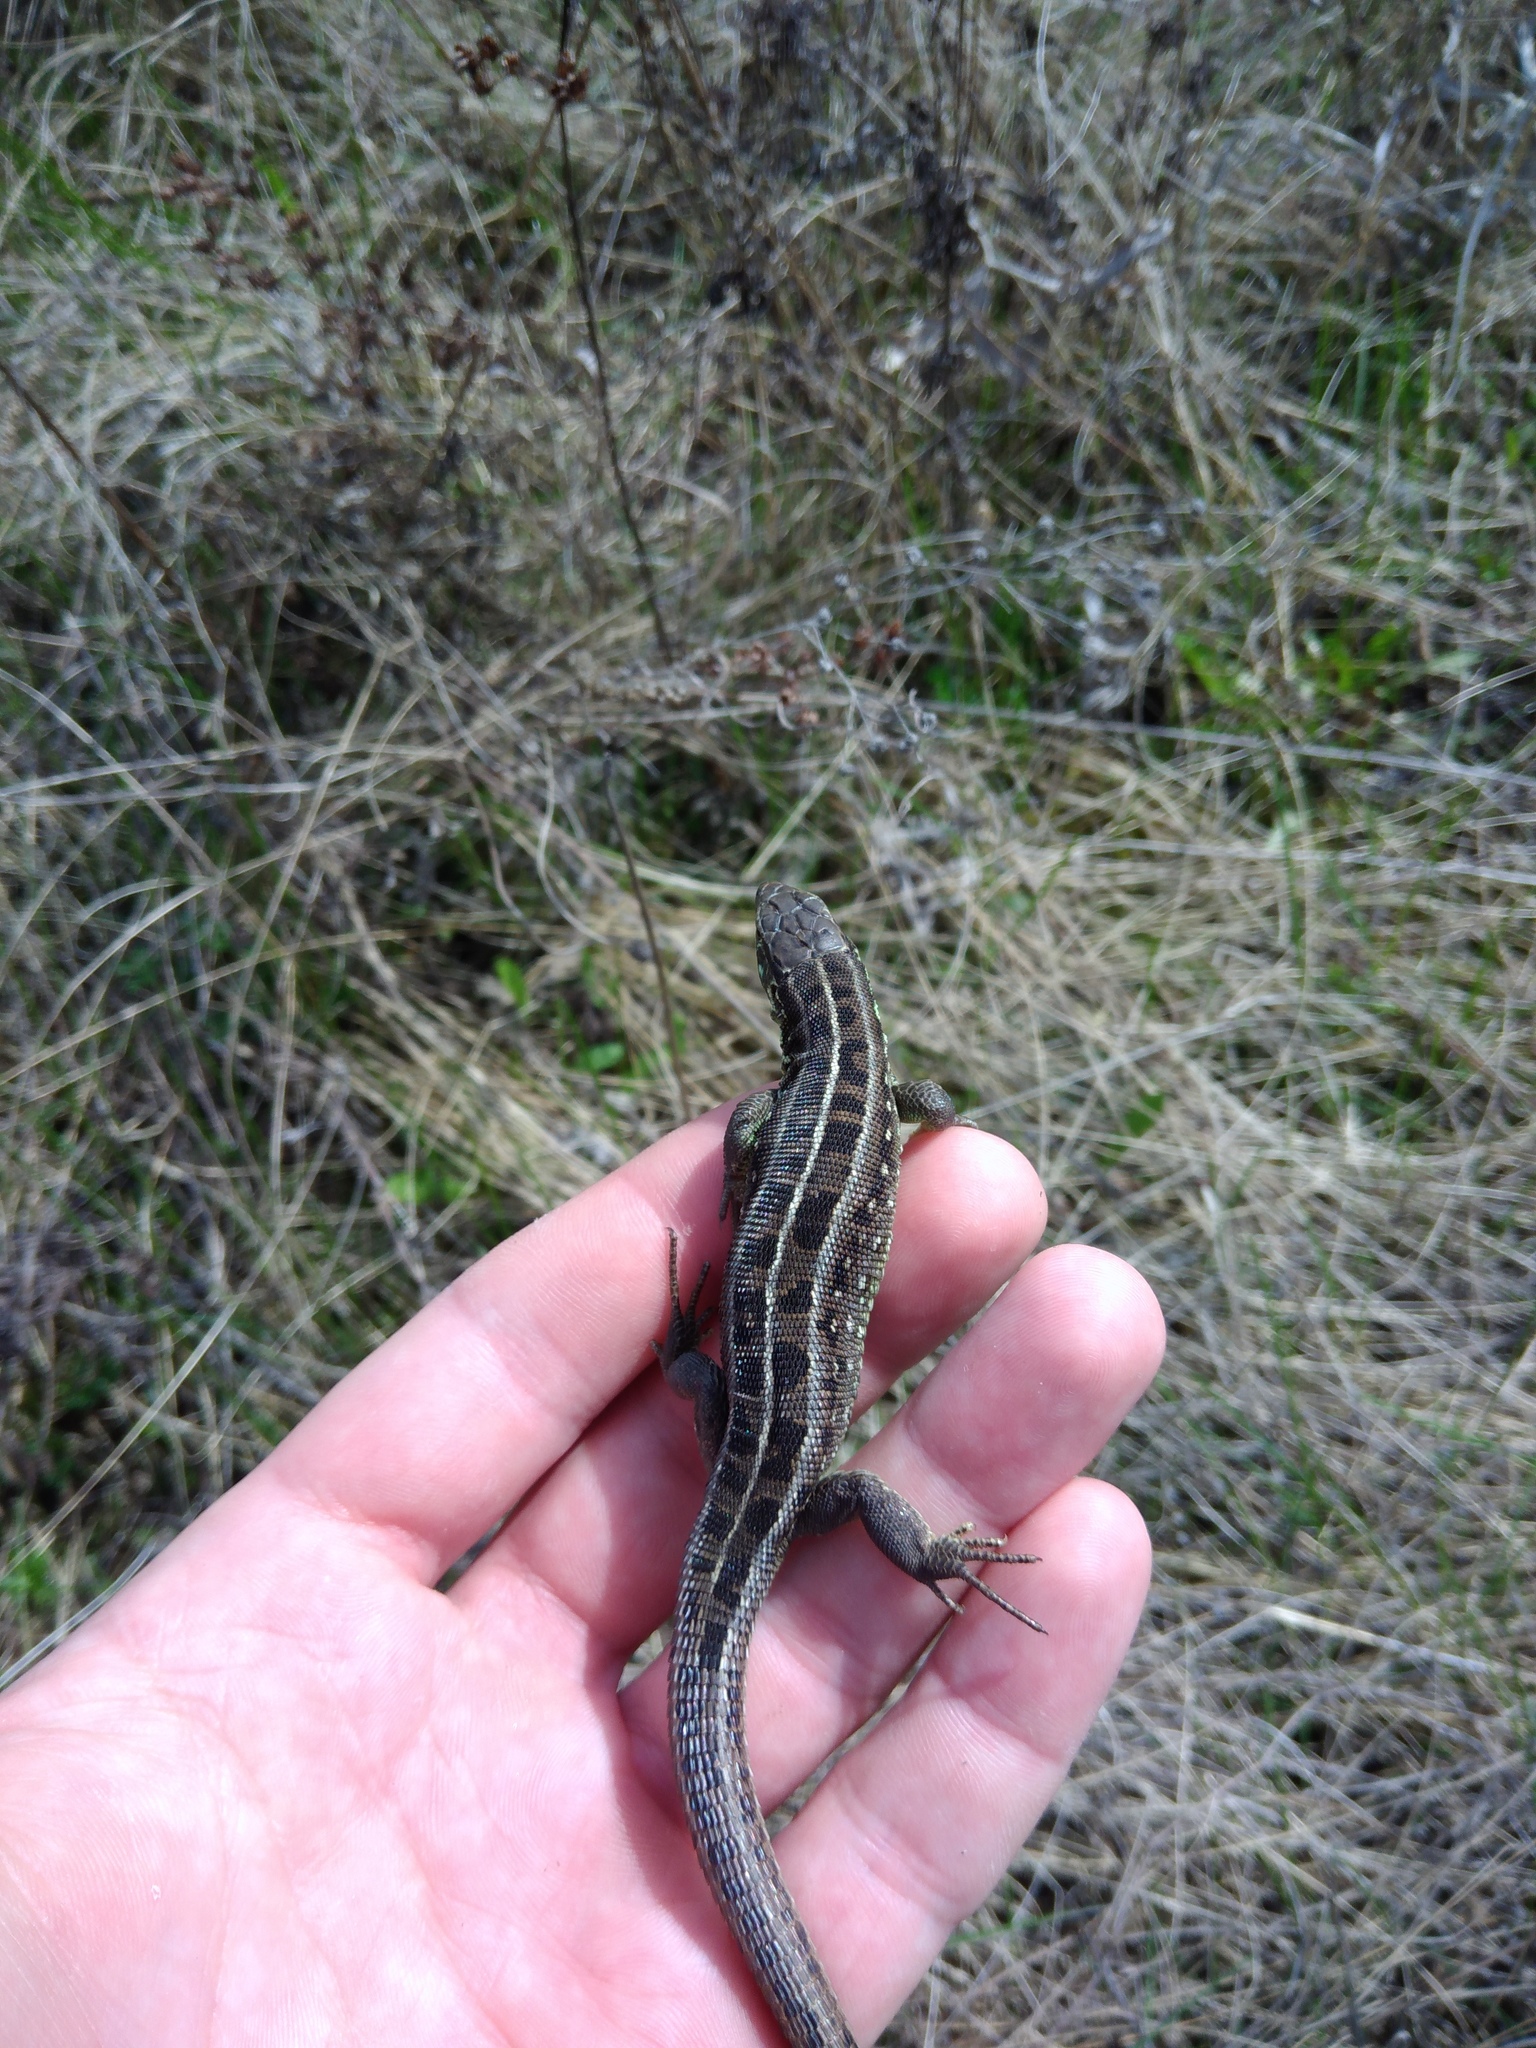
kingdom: Animalia
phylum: Chordata
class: Squamata
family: Lacertidae
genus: Lacerta
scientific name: Lacerta agilis
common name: Sand lizard
